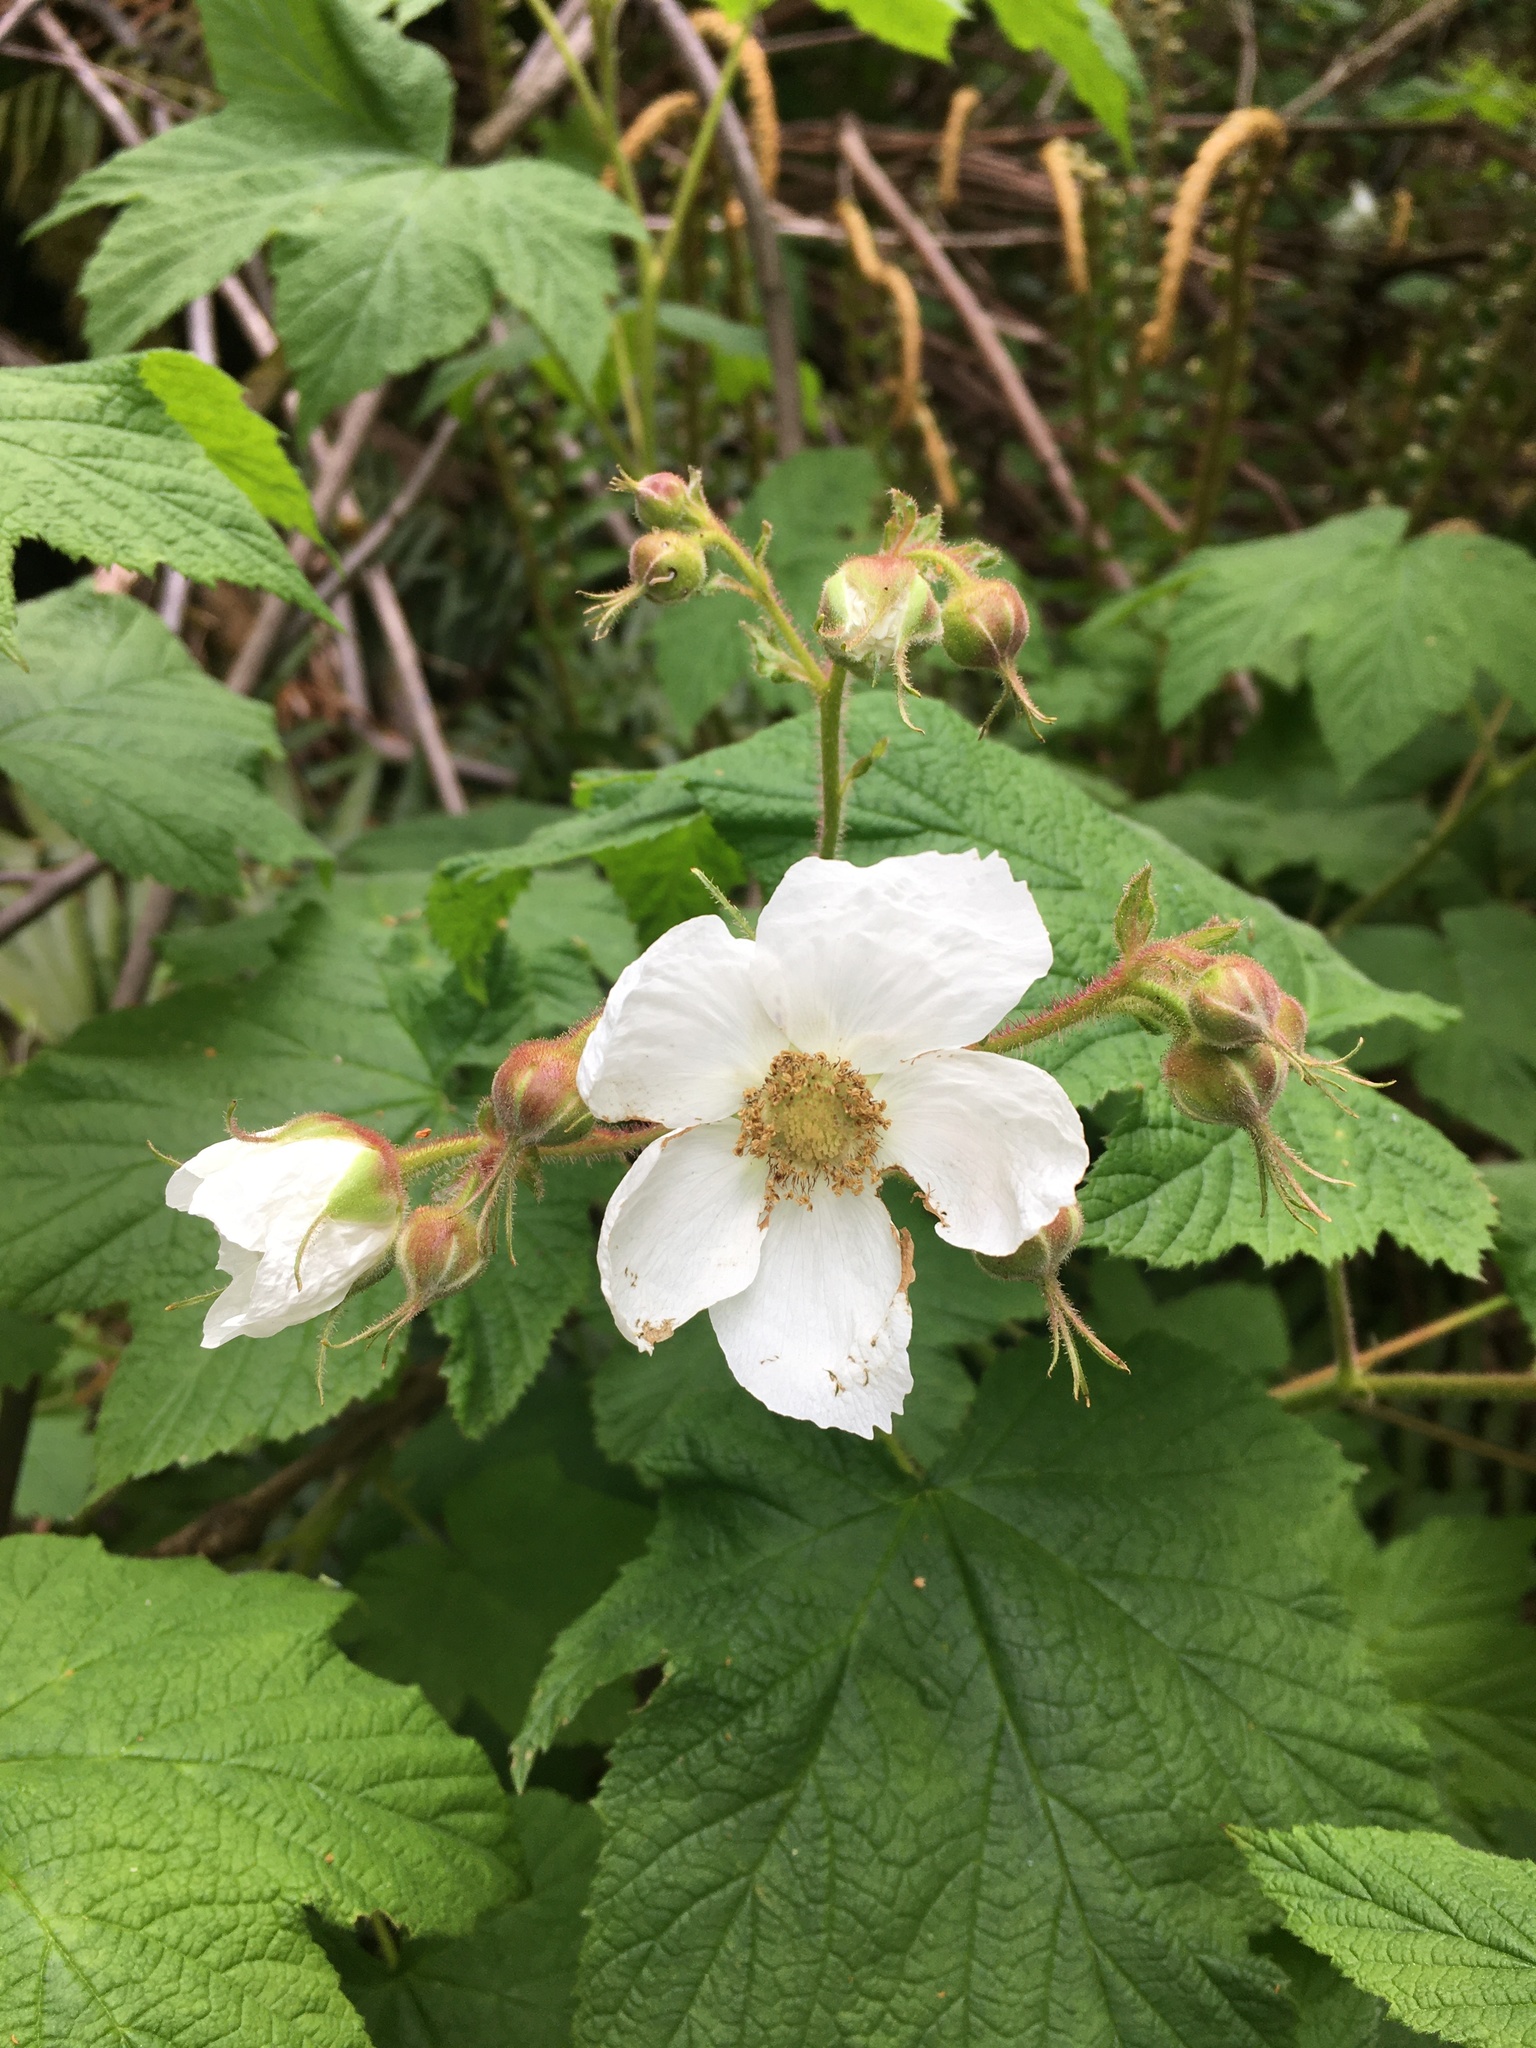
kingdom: Plantae
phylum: Tracheophyta
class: Magnoliopsida
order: Rosales
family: Rosaceae
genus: Rubus
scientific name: Rubus parviflorus
